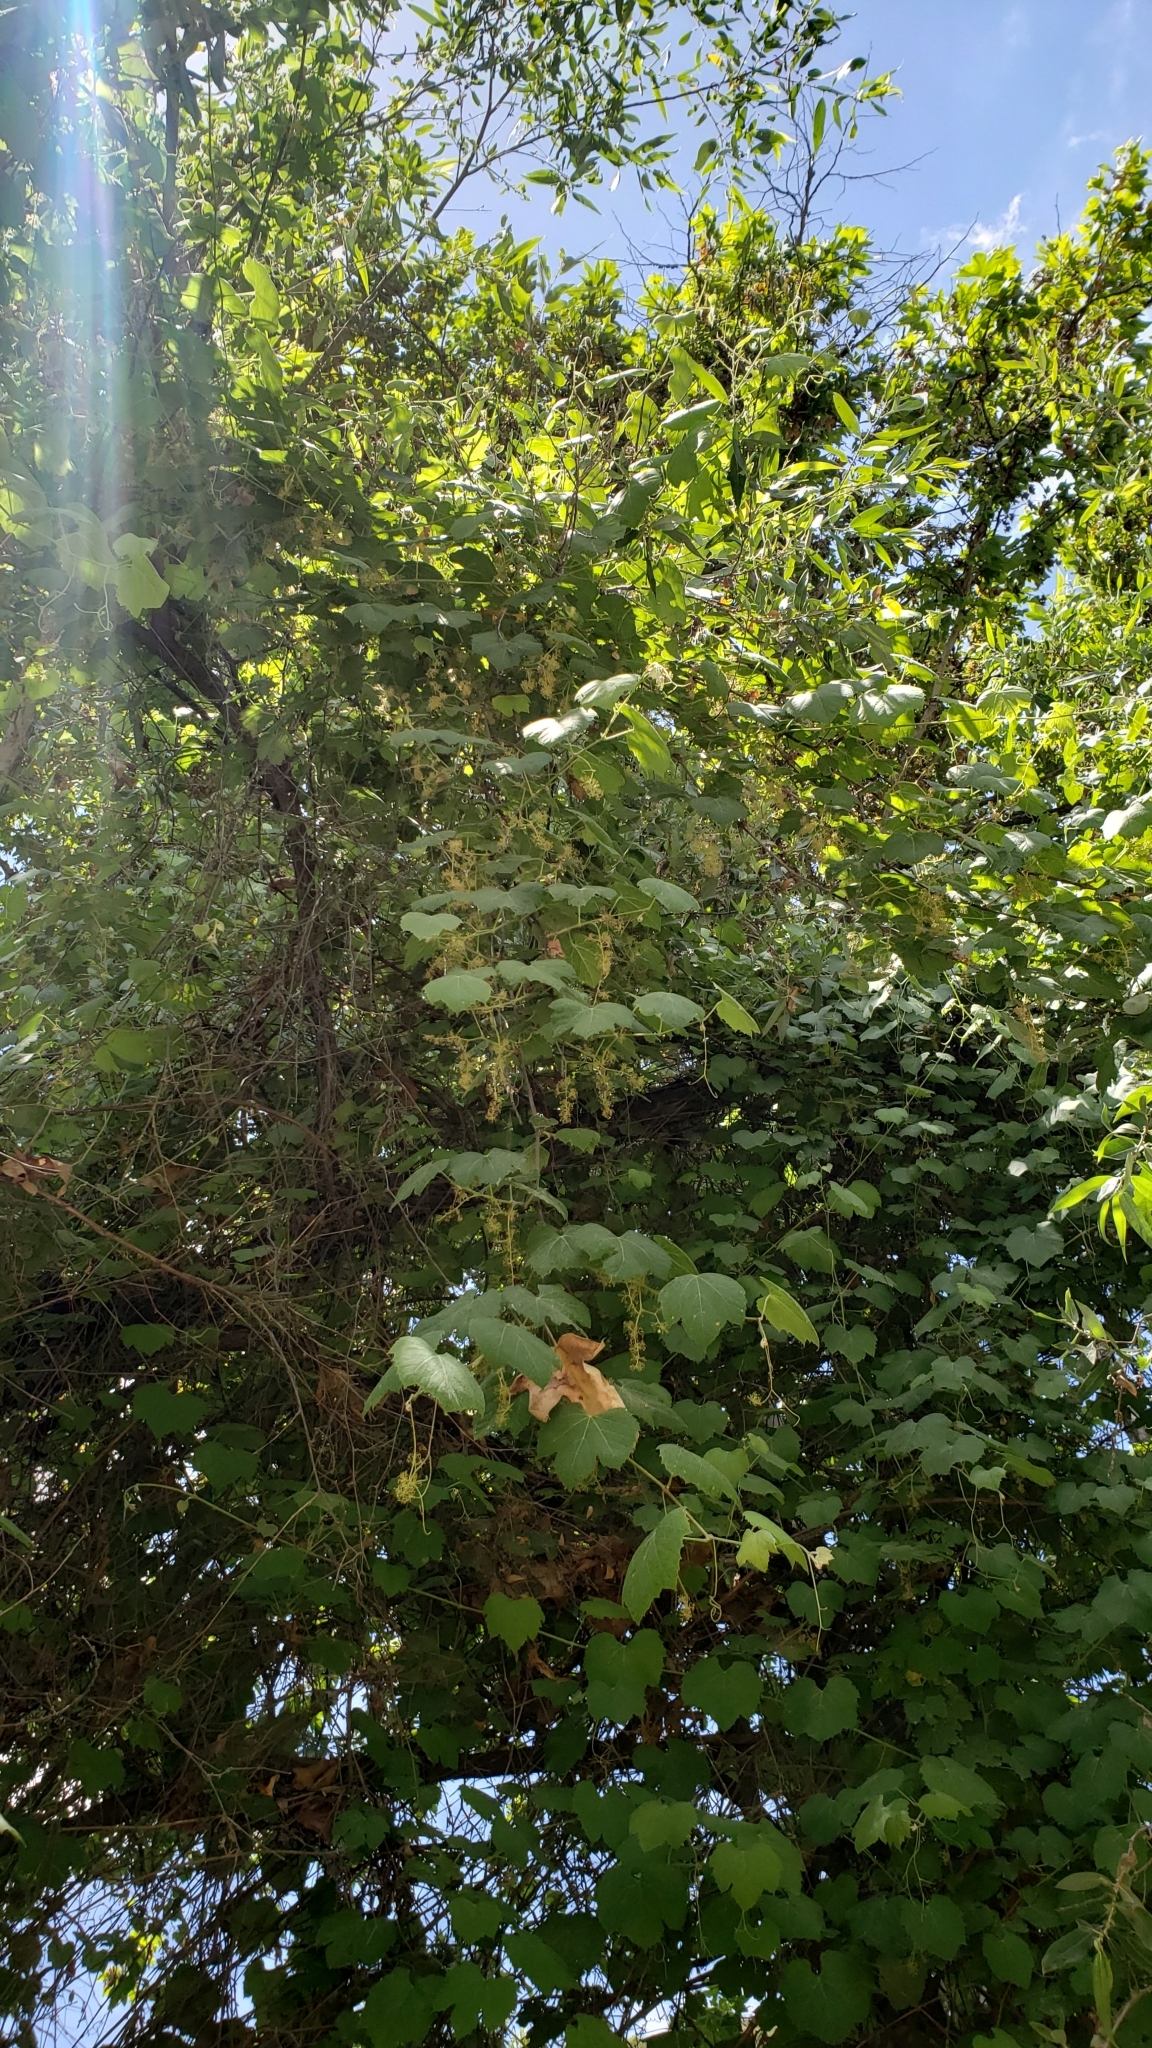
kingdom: Plantae
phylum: Tracheophyta
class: Magnoliopsida
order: Vitales
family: Vitaceae
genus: Vitis
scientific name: Vitis girdiana
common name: Desert wild grape
